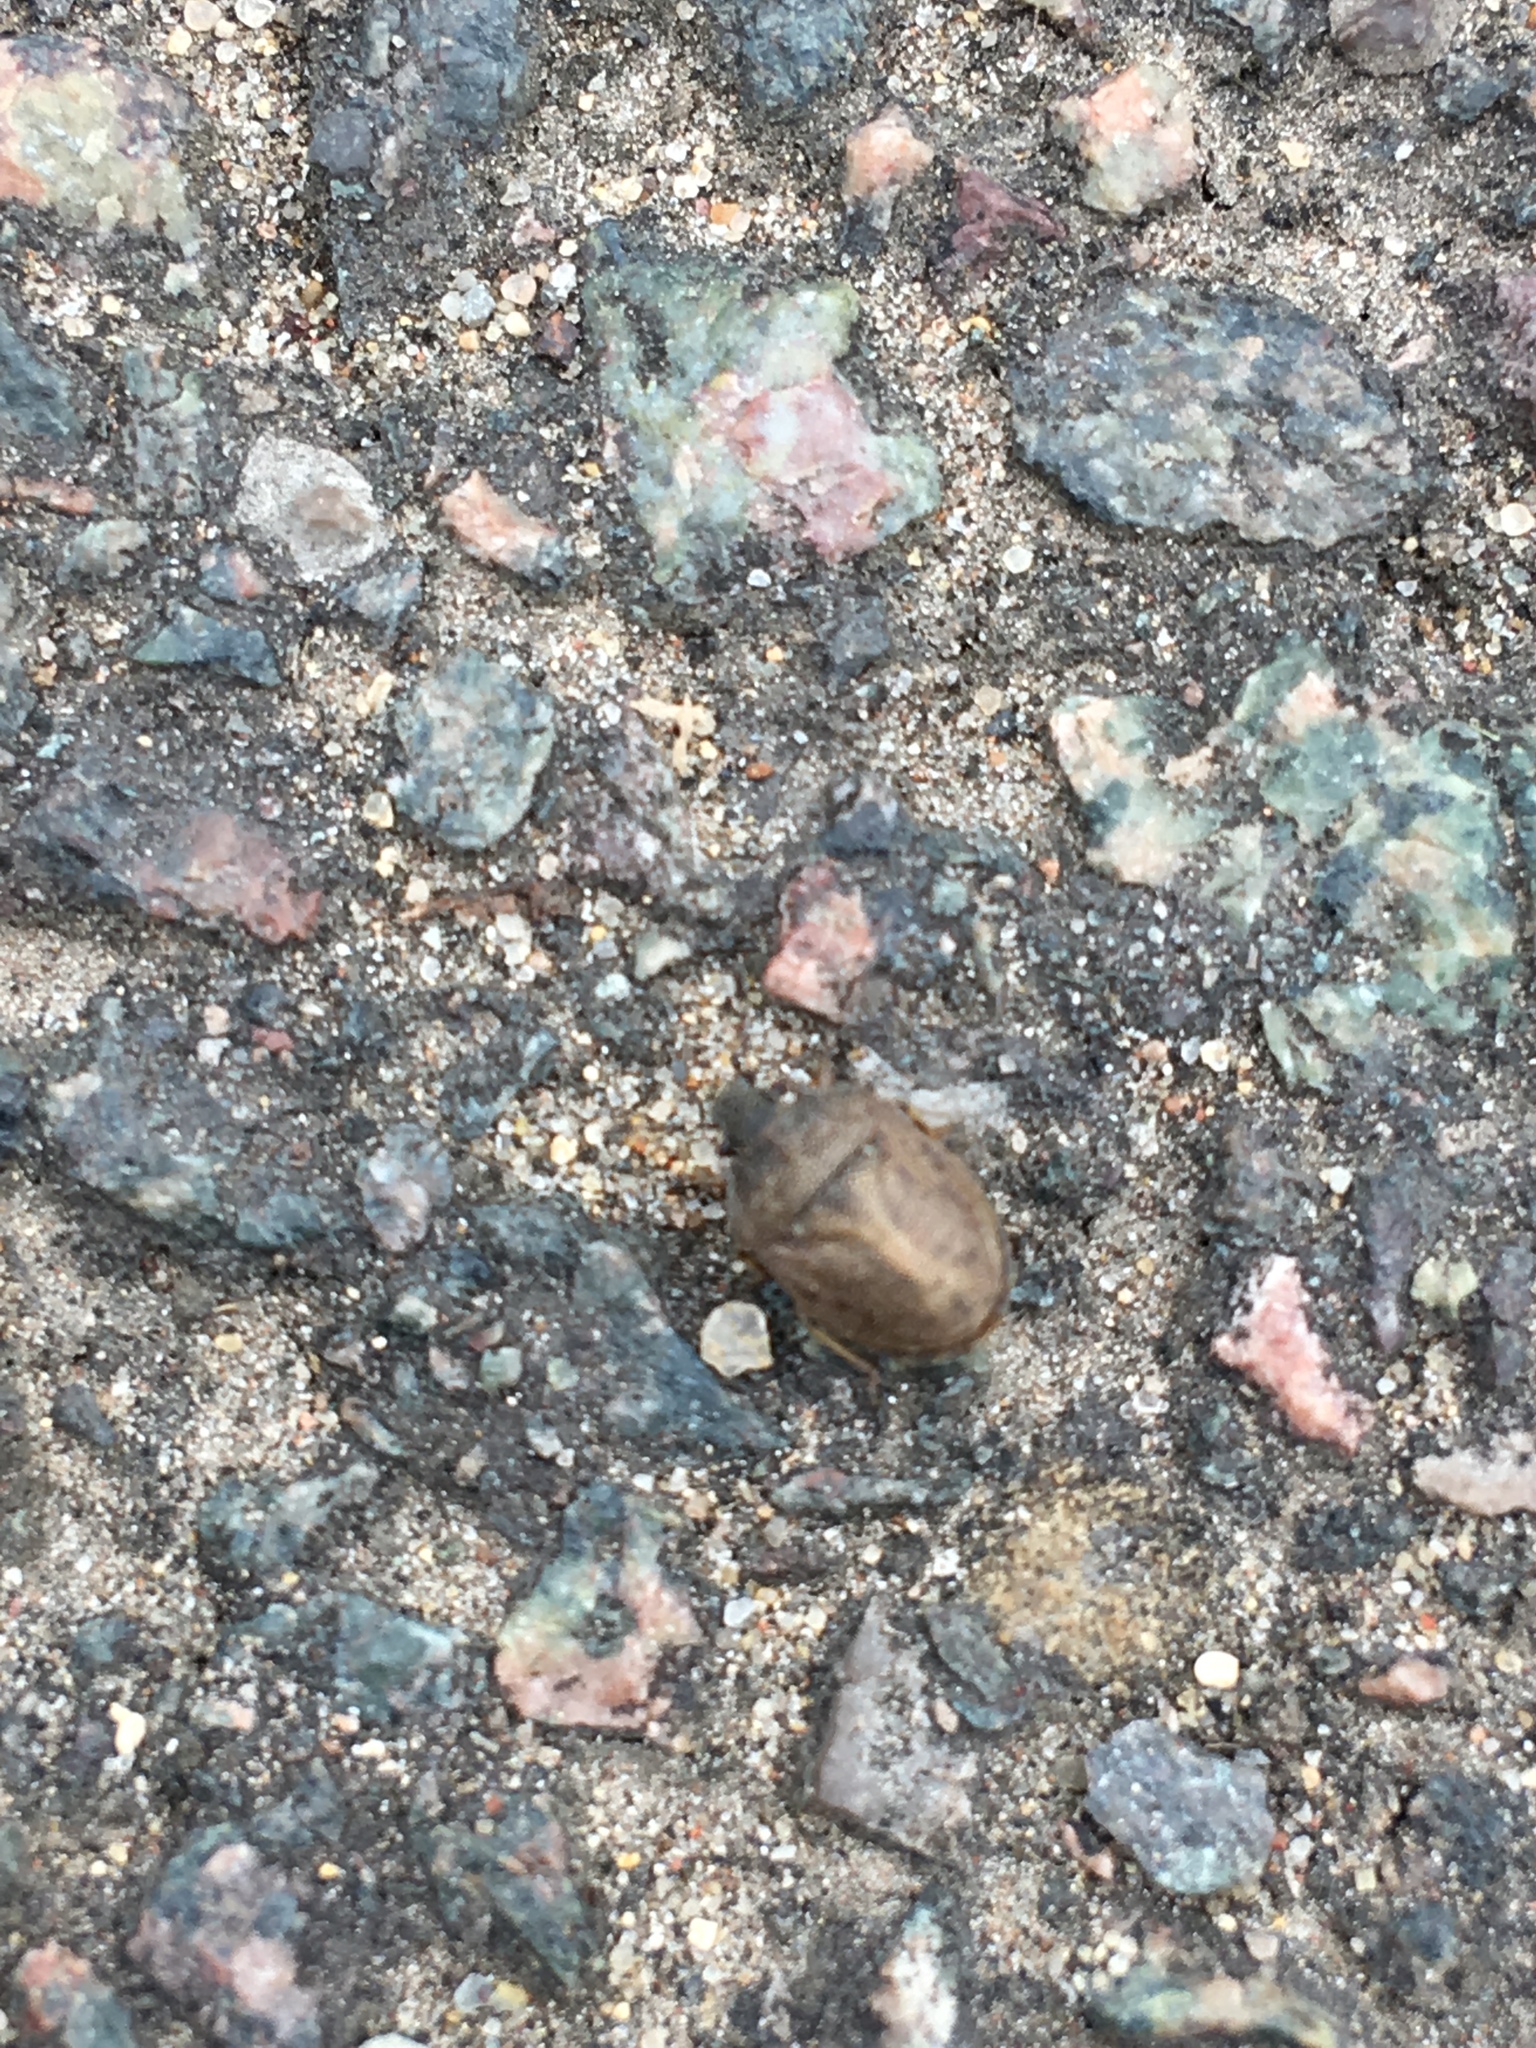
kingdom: Animalia
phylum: Arthropoda
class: Insecta
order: Hemiptera
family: Pentatomidae
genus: Podops
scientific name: Podops inunctus
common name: Turtle bug
